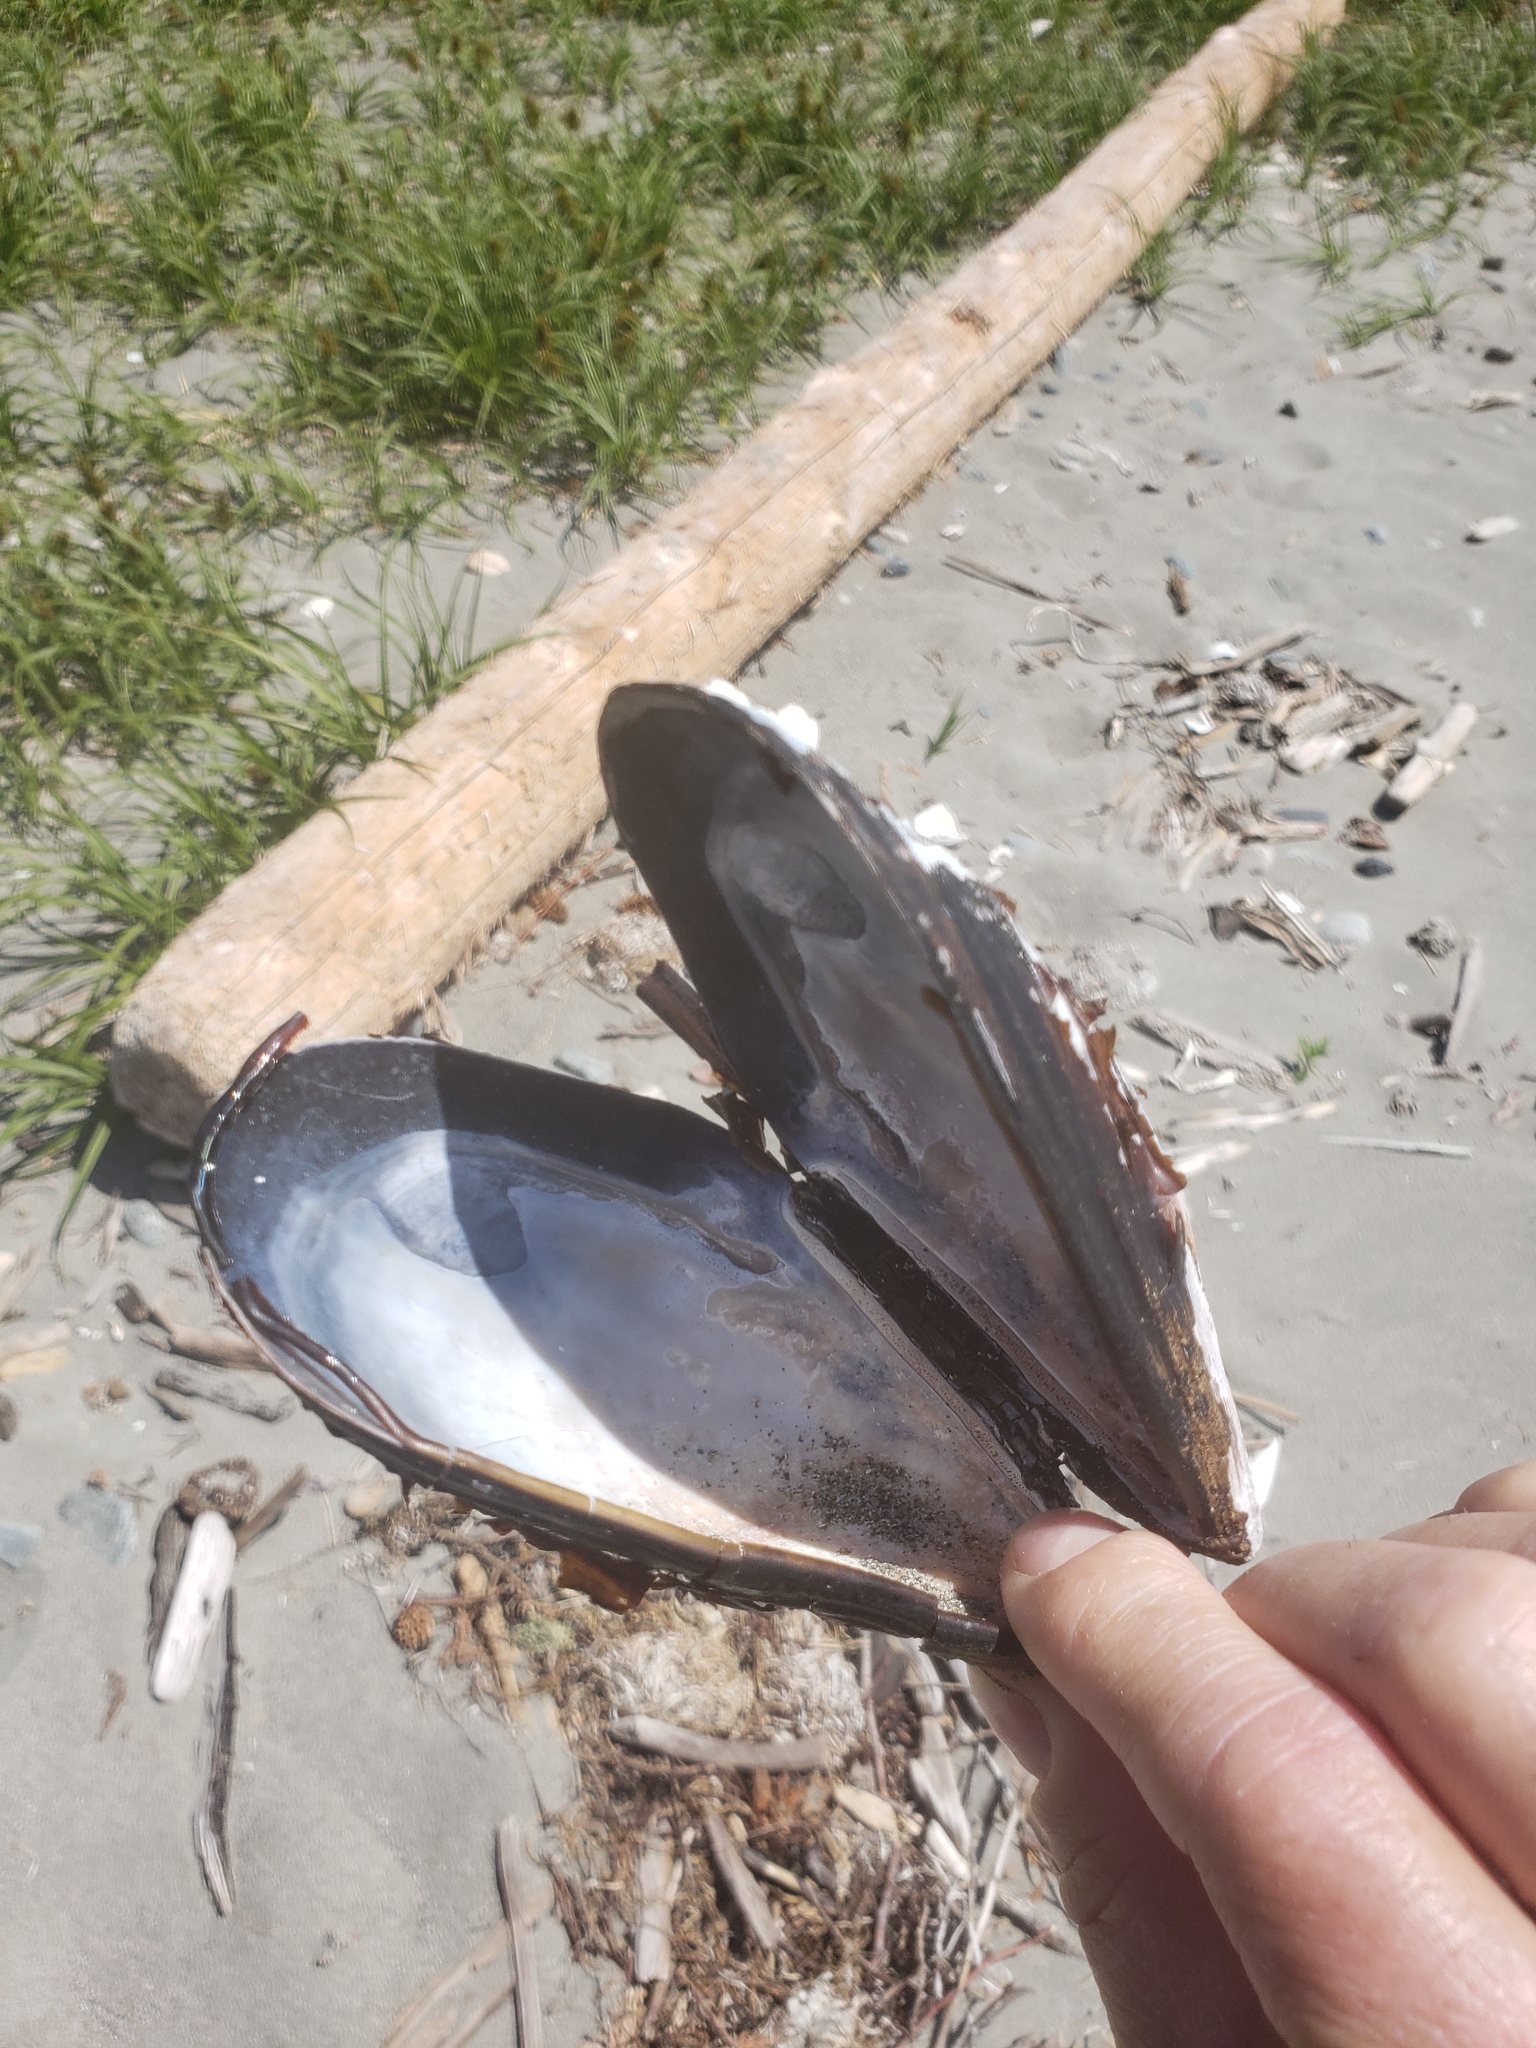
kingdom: Animalia
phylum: Mollusca
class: Bivalvia
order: Mytilida
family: Mytilidae
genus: Mytilus
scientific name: Mytilus californianus
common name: California mussel
